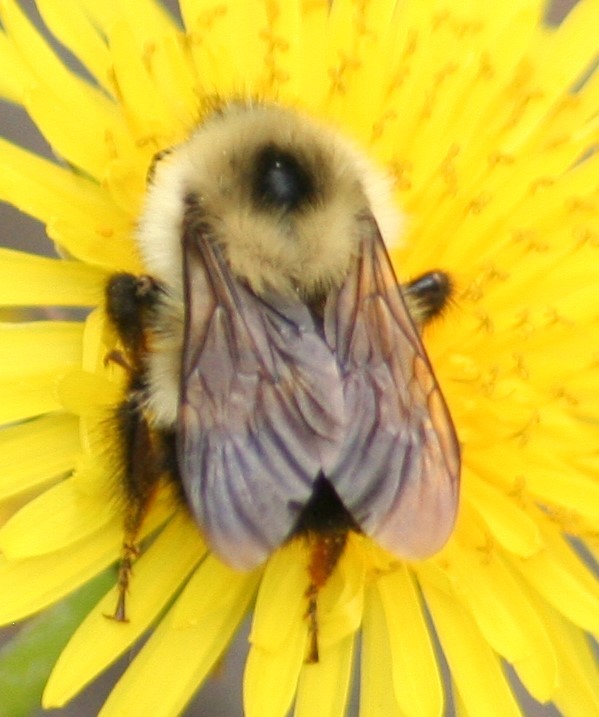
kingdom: Animalia
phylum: Arthropoda
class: Insecta
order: Hymenoptera
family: Apidae
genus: Bombus
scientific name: Bombus vagans
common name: Half-black bumble bee
